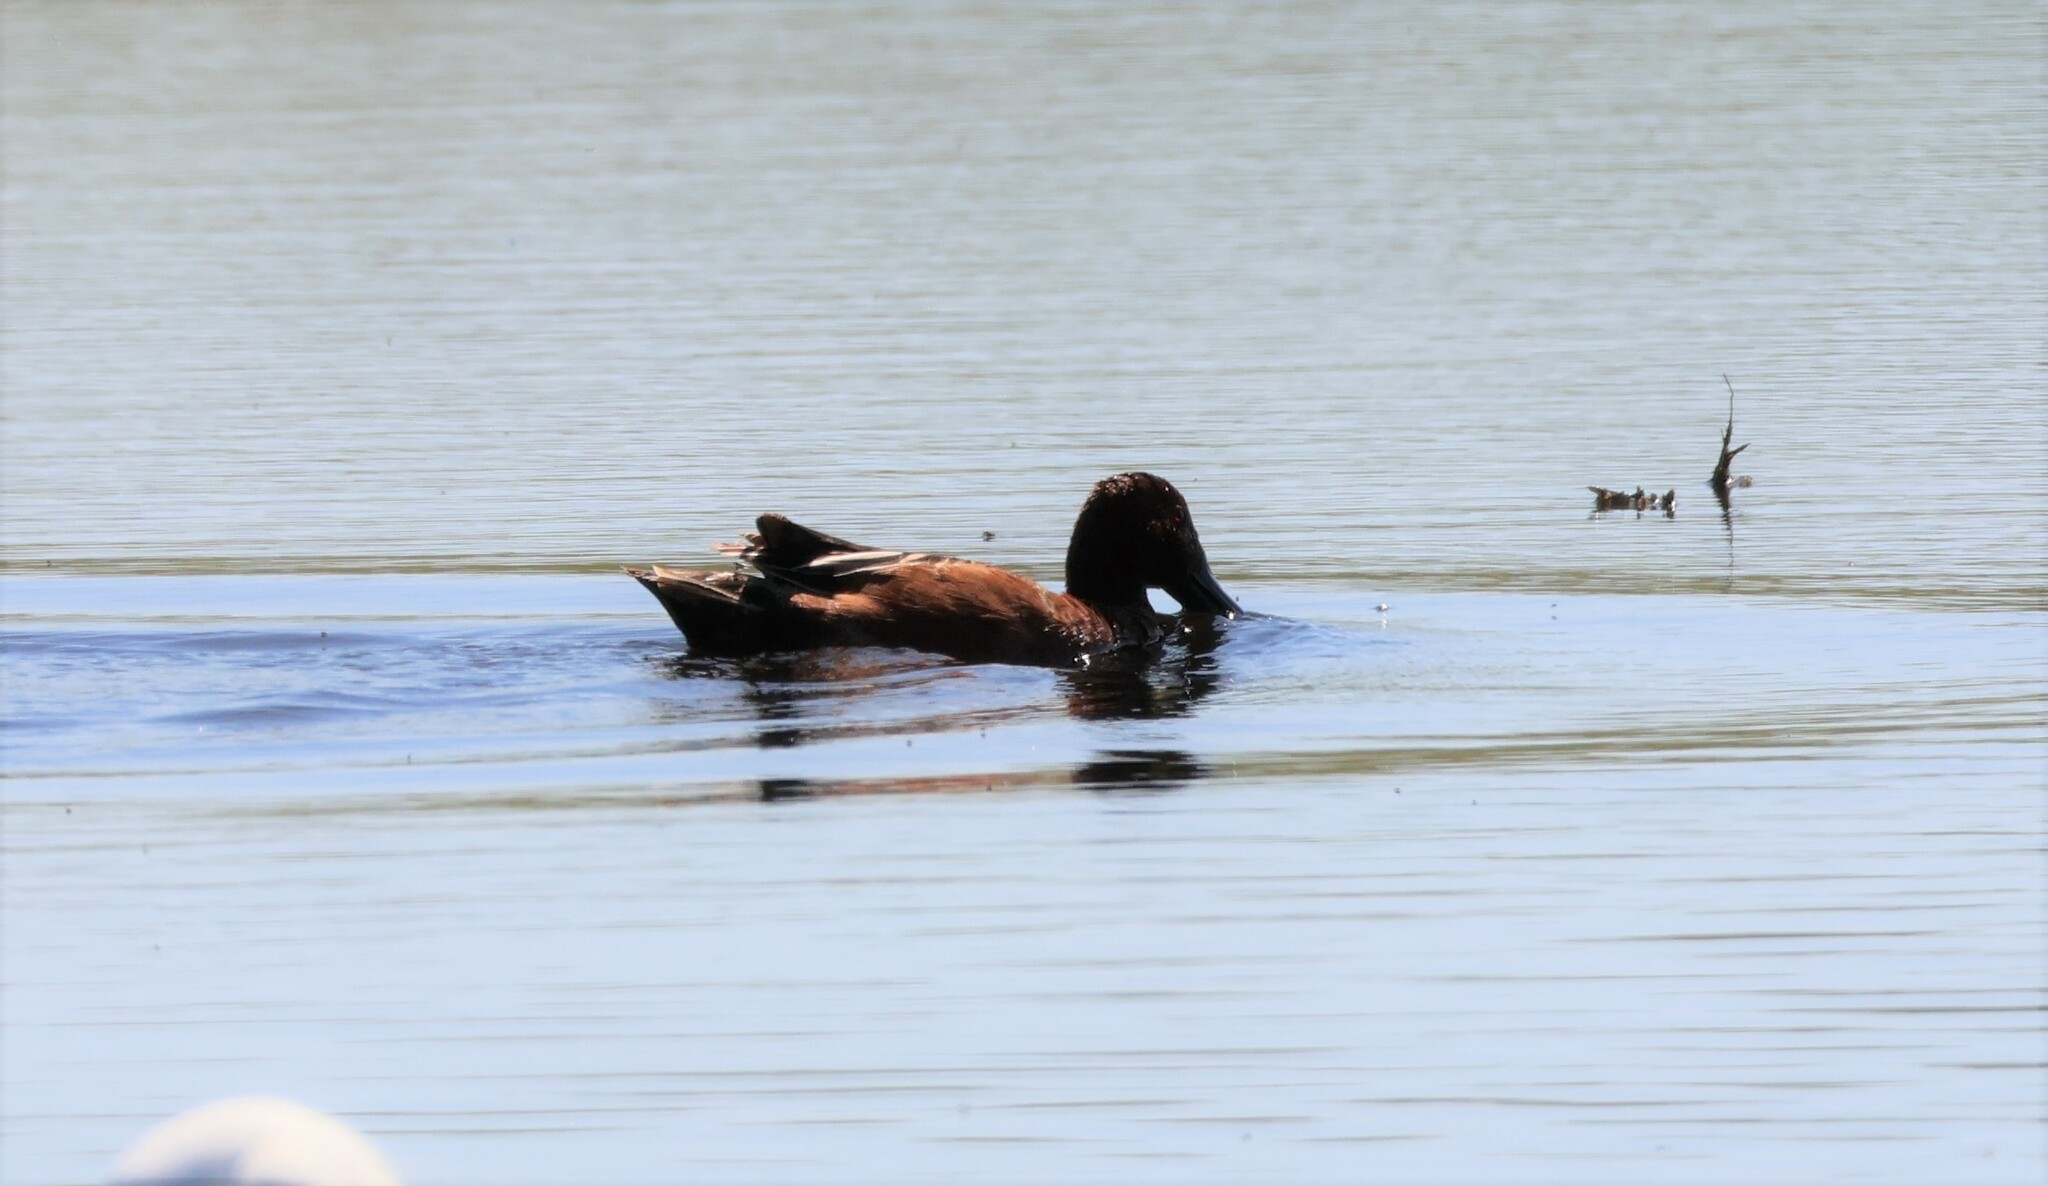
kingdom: Animalia
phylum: Chordata
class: Aves
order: Anseriformes
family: Anatidae
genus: Spatula
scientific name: Spatula cyanoptera
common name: Cinnamon teal
